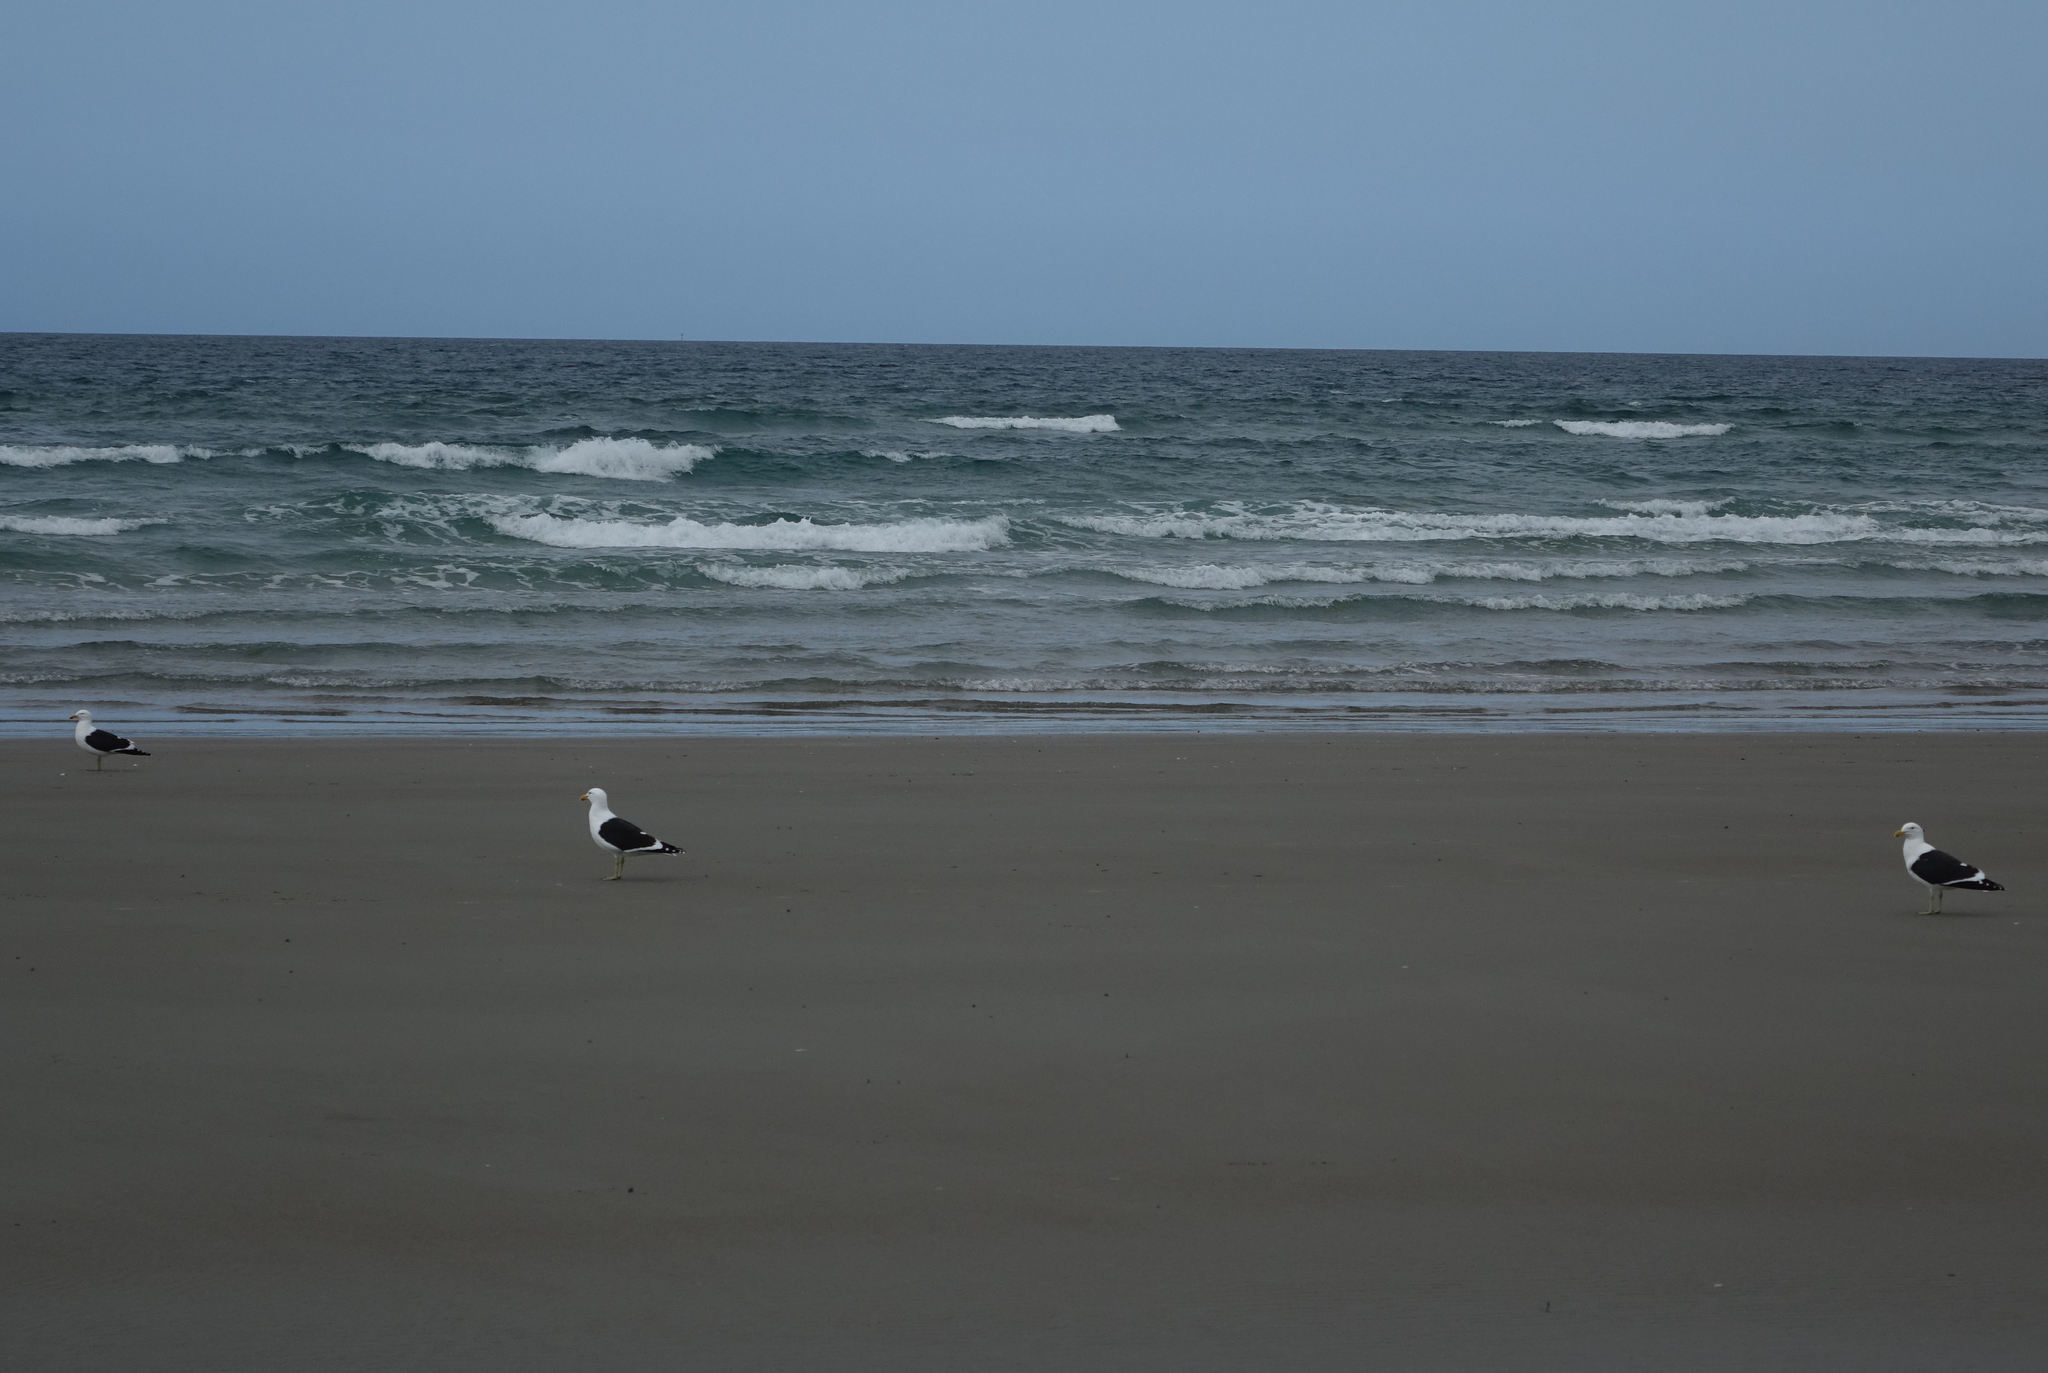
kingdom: Animalia
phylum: Chordata
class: Aves
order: Charadriiformes
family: Laridae
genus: Larus
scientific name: Larus dominicanus
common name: Kelp gull
